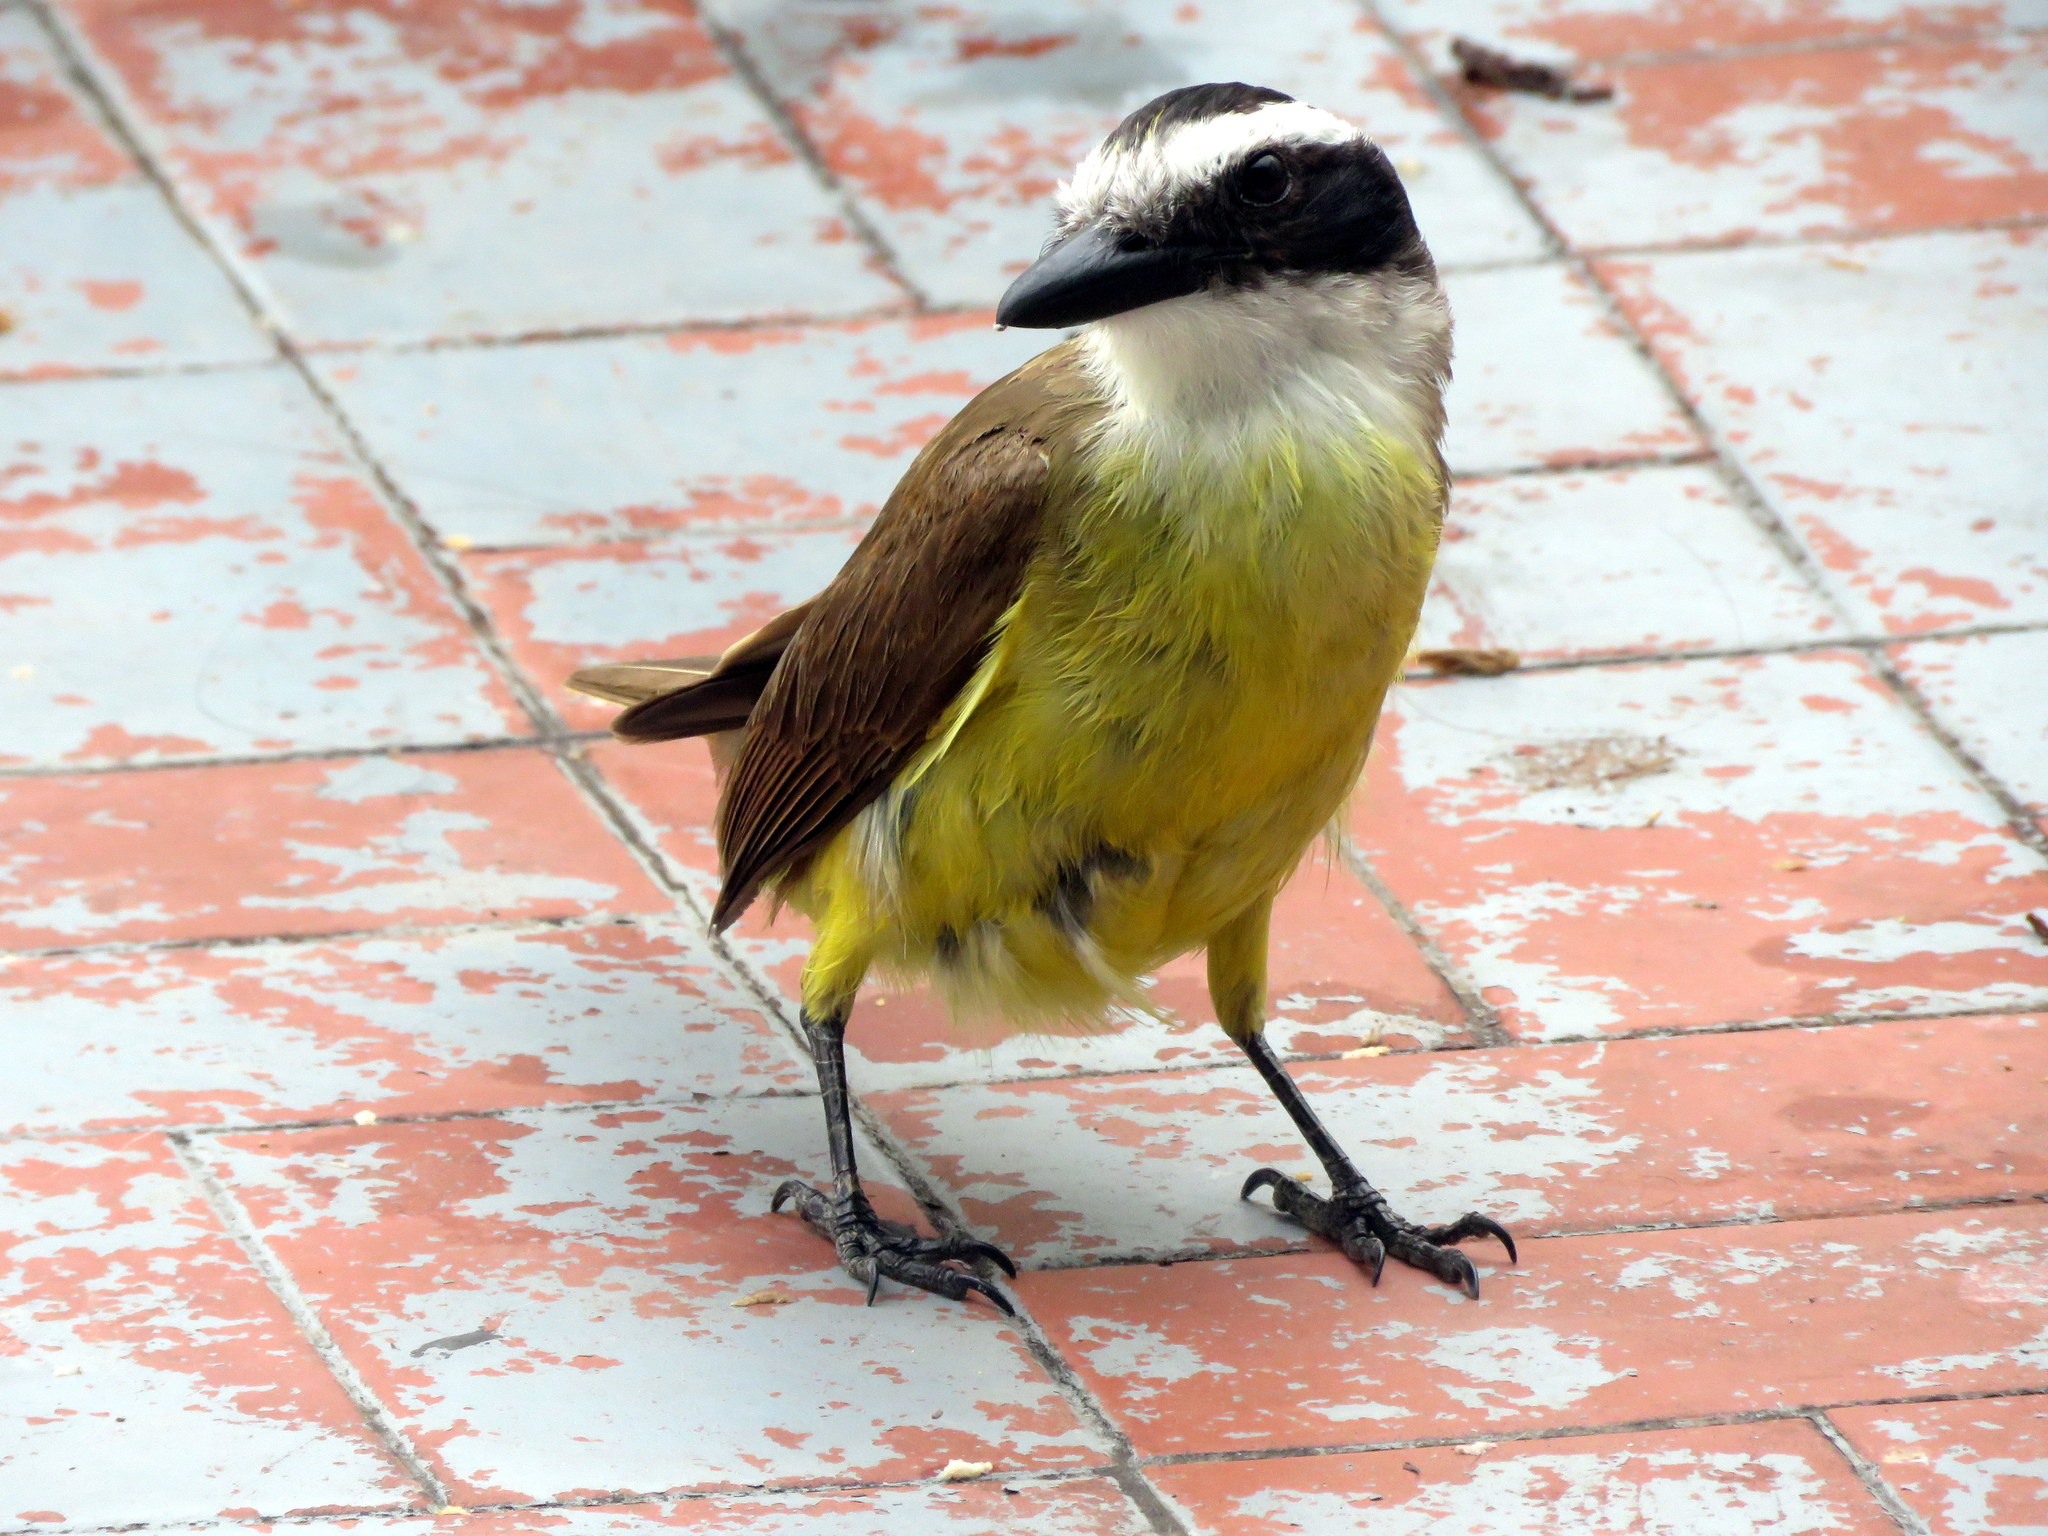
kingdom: Animalia
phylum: Chordata
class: Aves
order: Passeriformes
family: Tyrannidae
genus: Pitangus
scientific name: Pitangus sulphuratus
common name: Great kiskadee
